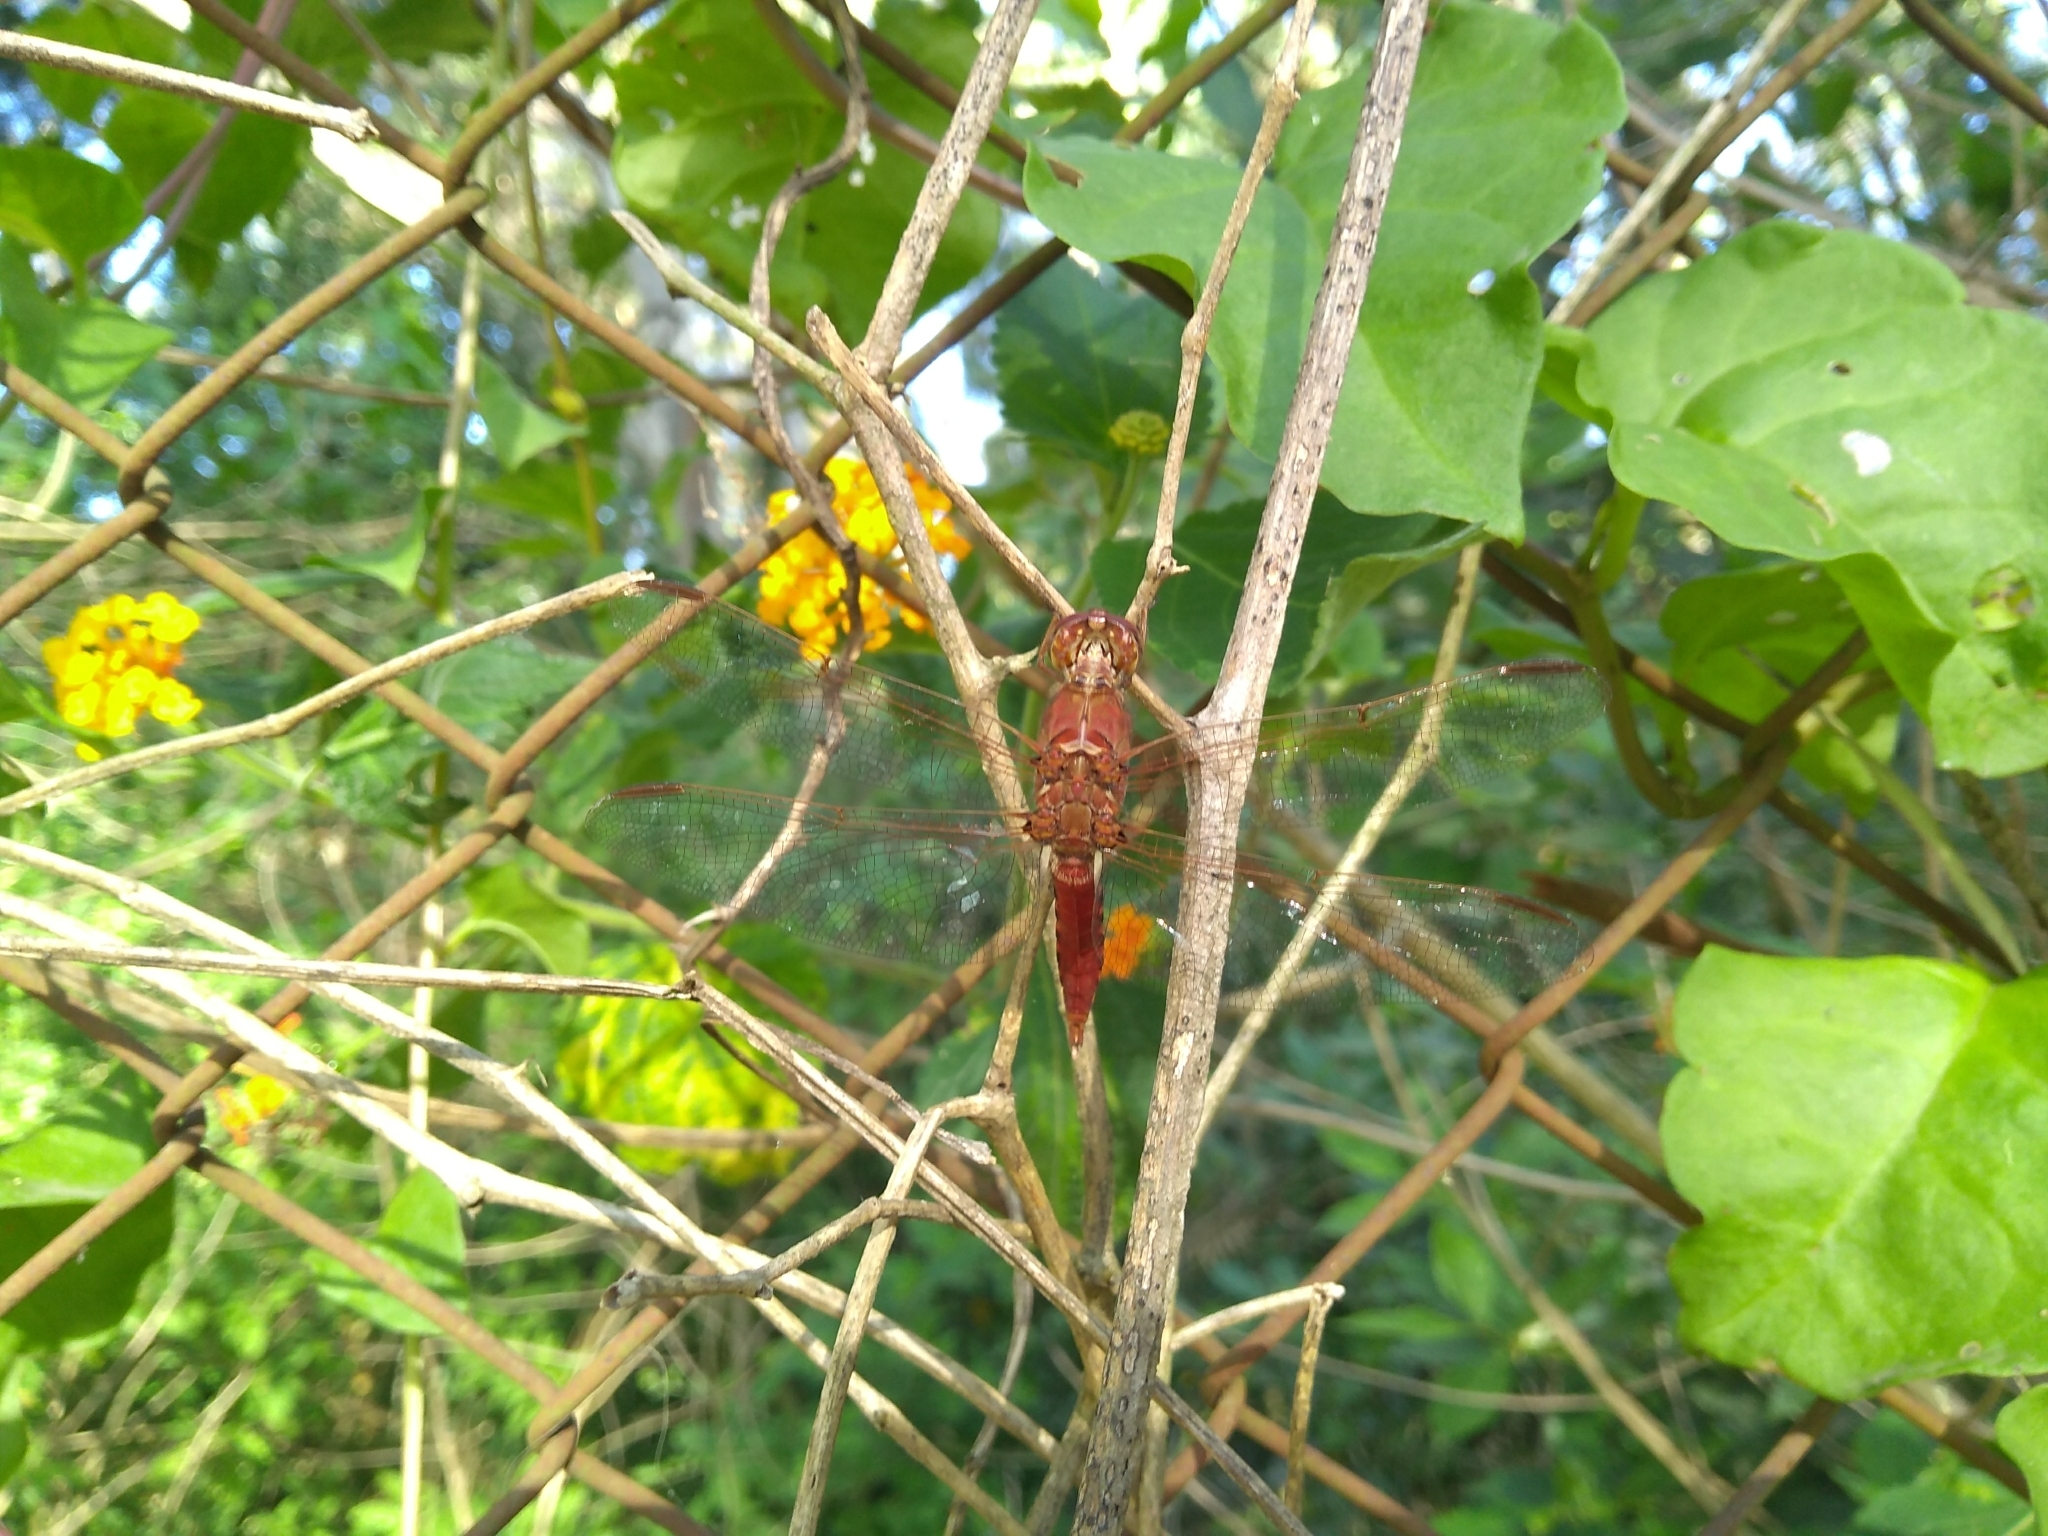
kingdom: Animalia
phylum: Arthropoda
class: Insecta
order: Odonata
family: Libellulidae
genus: Orthemis
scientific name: Orthemis nodiplaga
